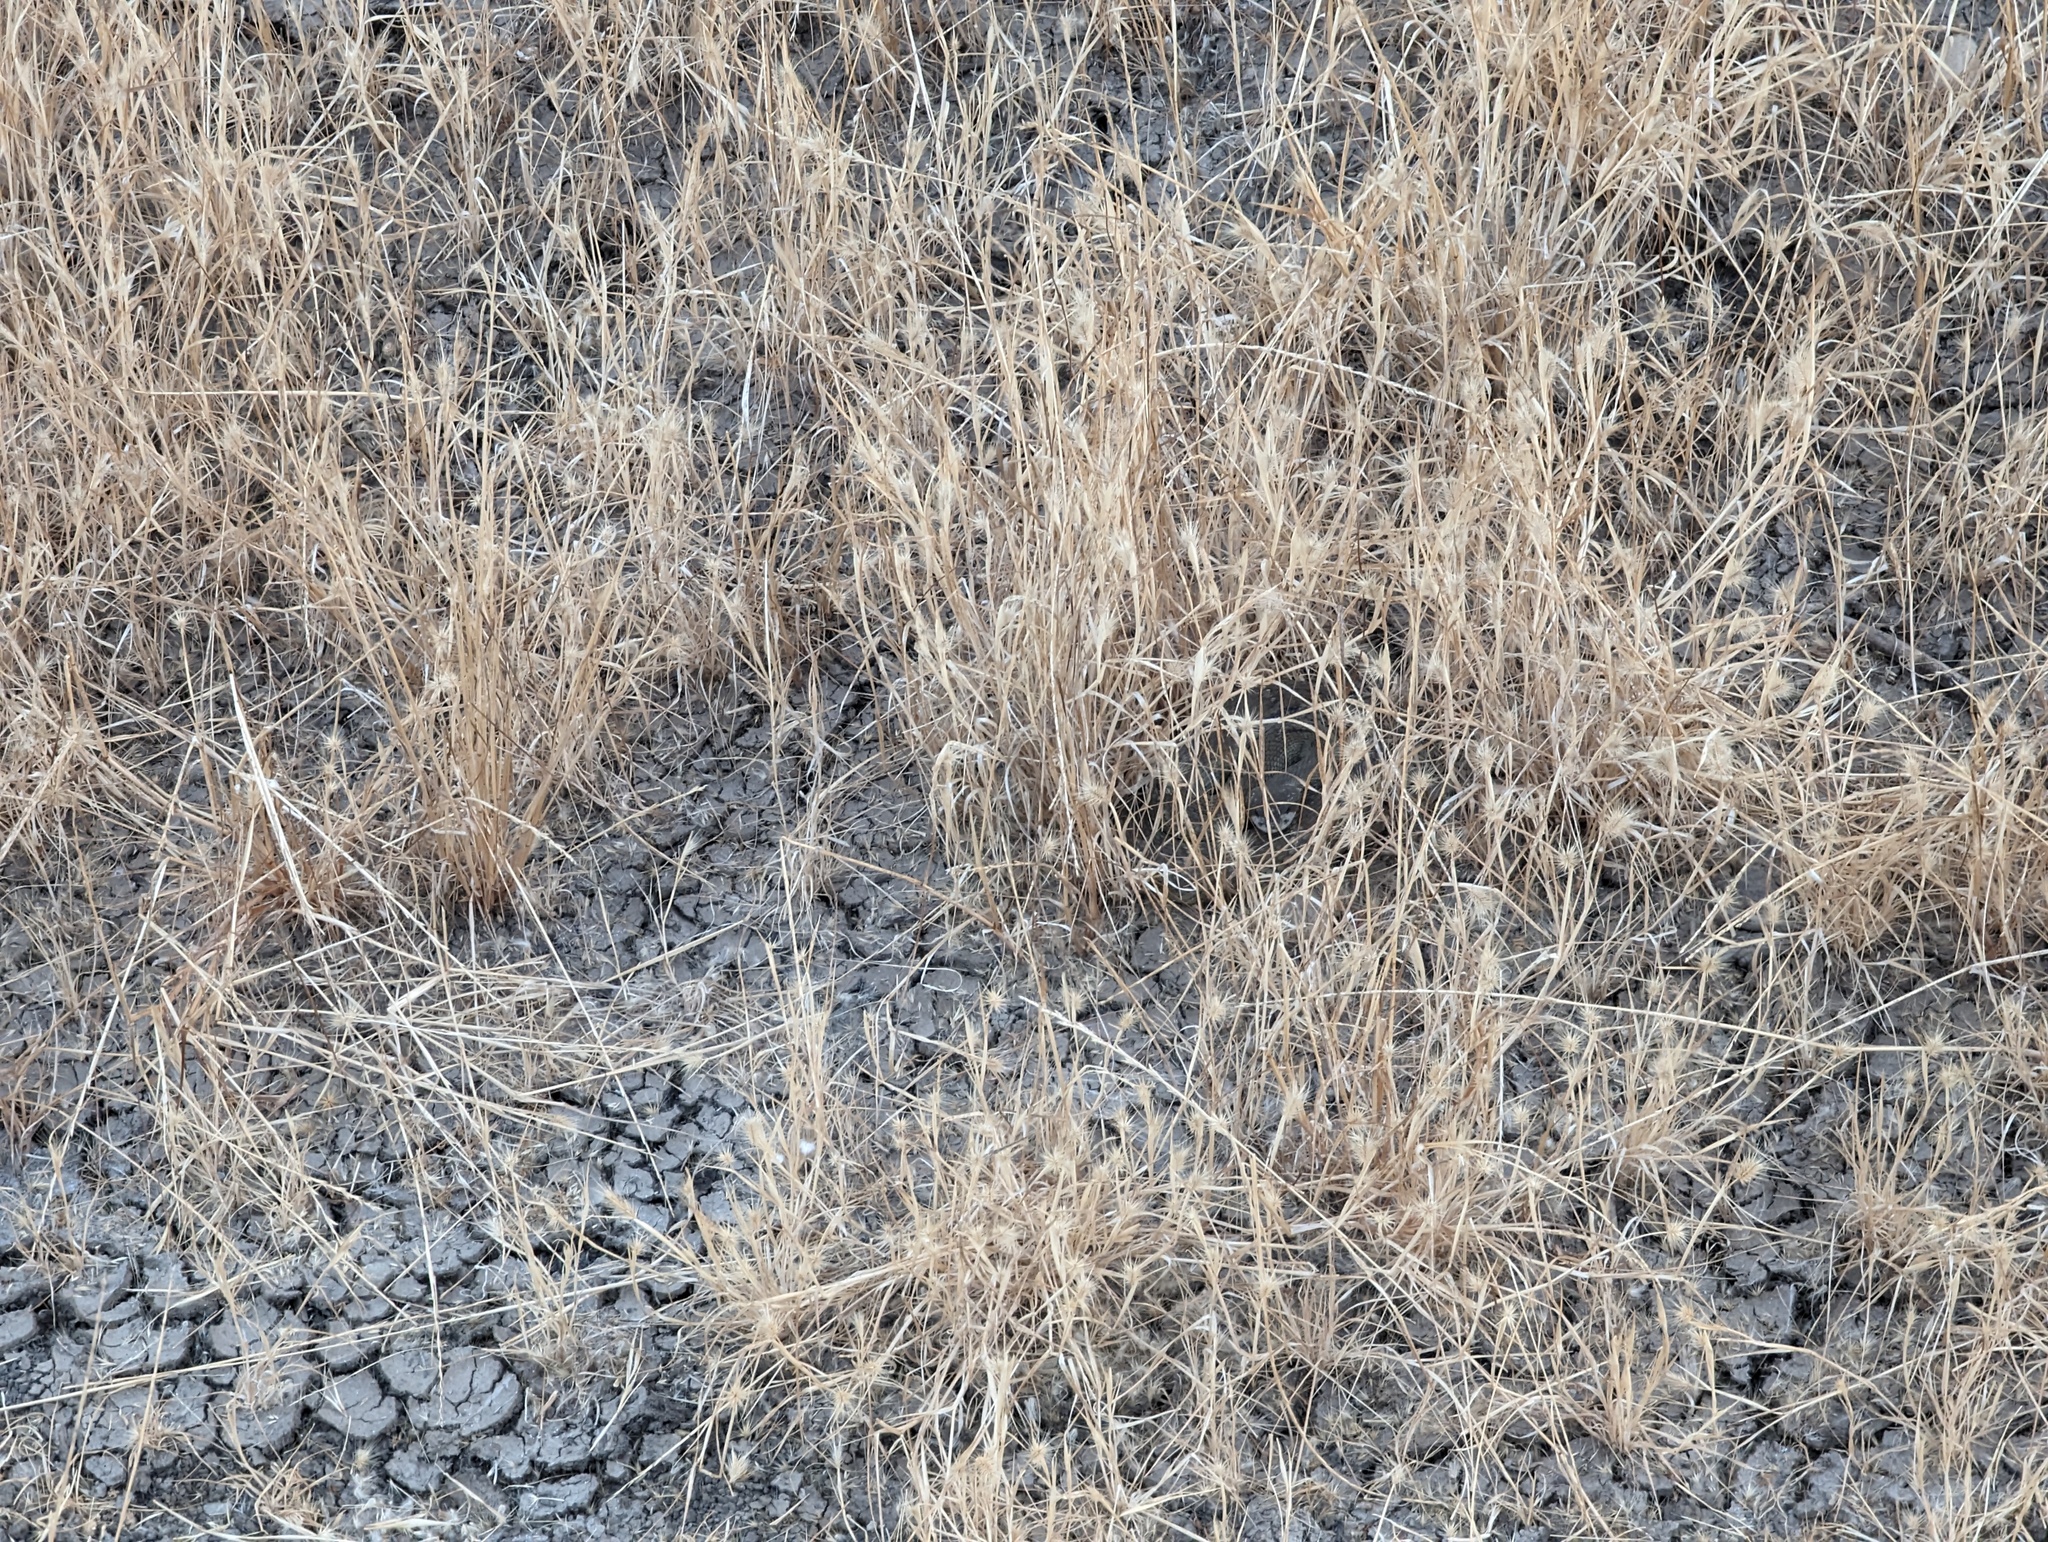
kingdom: Animalia
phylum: Chordata
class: Squamata
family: Viperidae
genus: Crotalus
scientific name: Crotalus oreganus
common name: Abyssus
